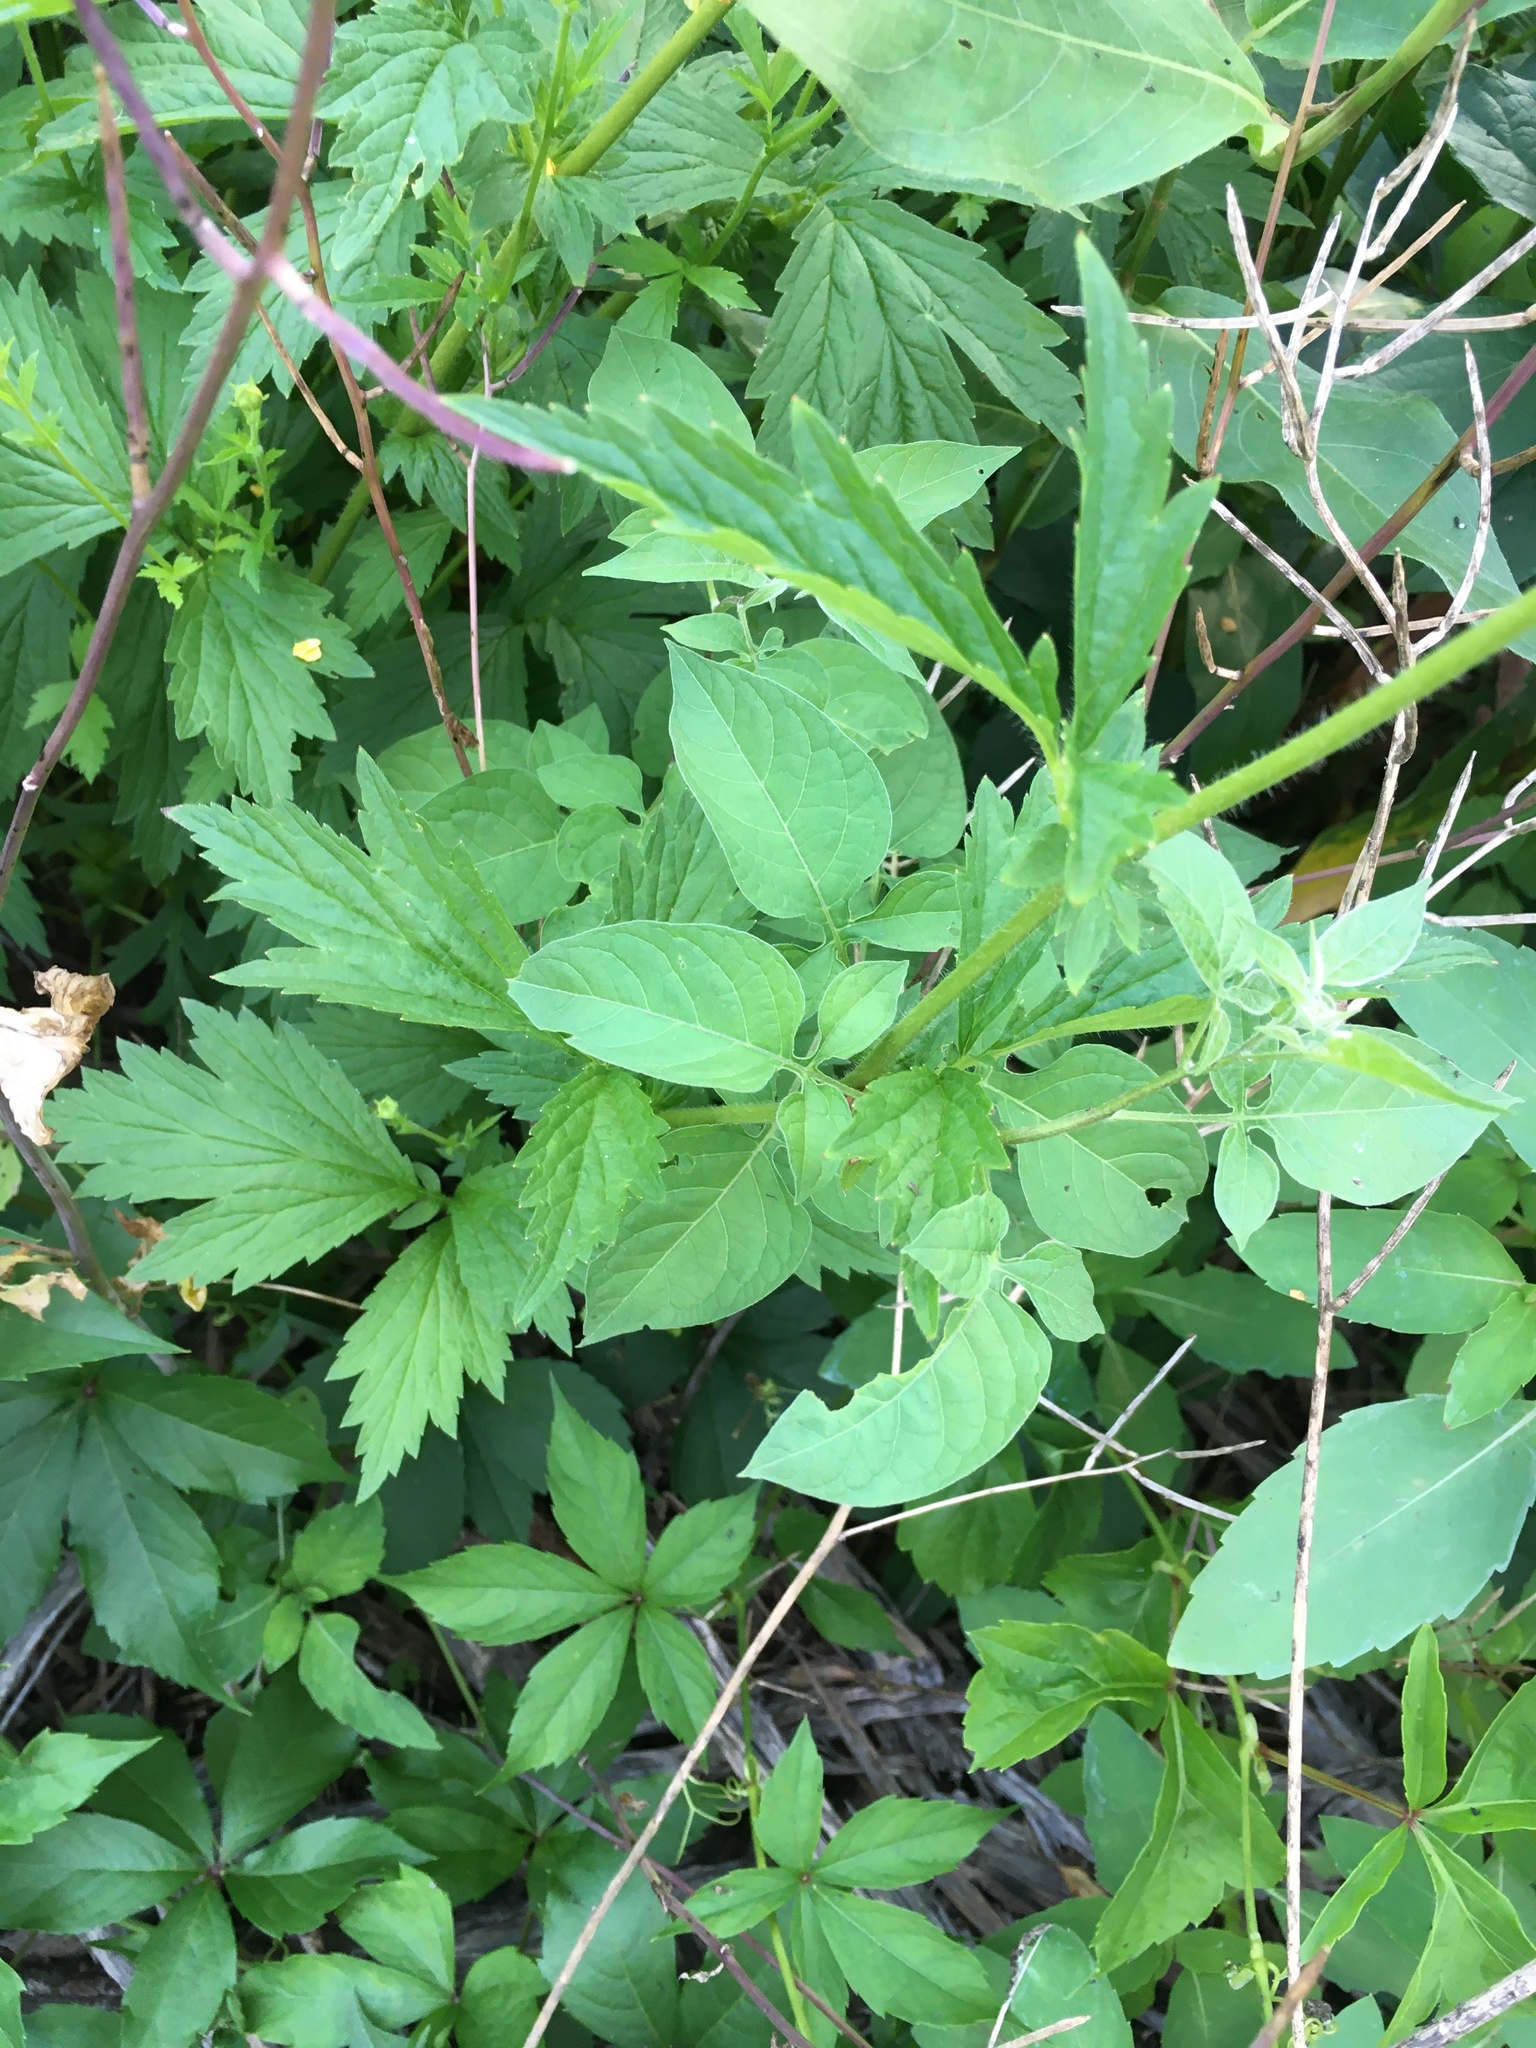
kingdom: Plantae
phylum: Tracheophyta
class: Magnoliopsida
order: Rosales
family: Rosaceae
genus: Geum
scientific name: Geum aleppicum
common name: Yellow avens
